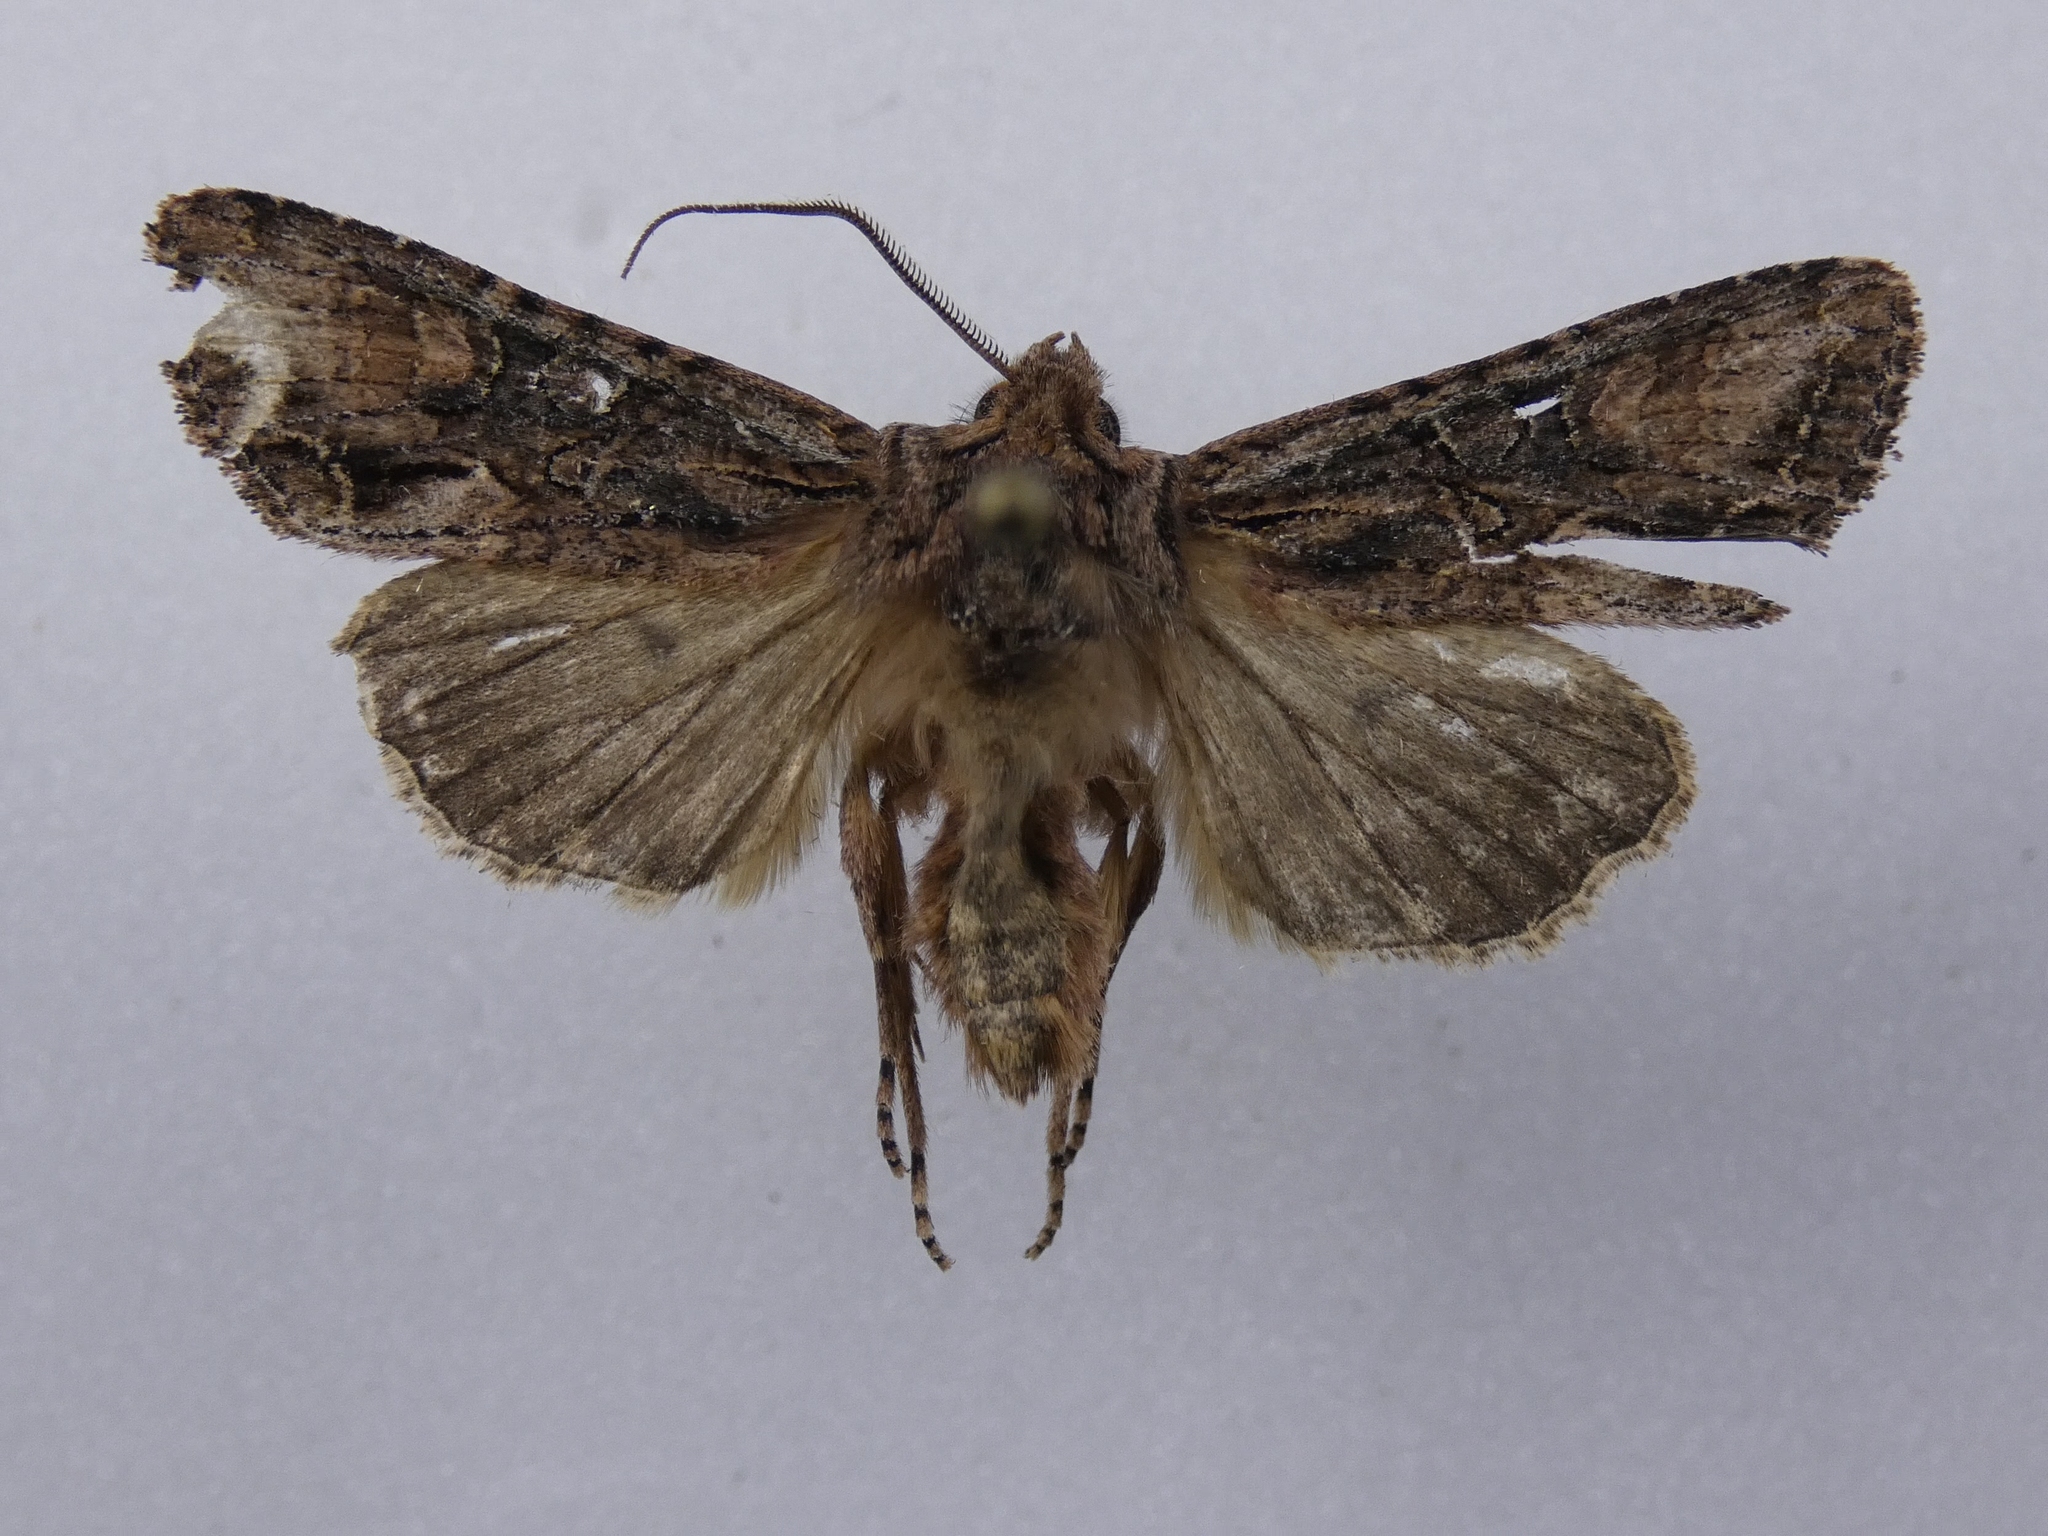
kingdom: Animalia
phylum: Arthropoda
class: Insecta
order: Lepidoptera
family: Noctuidae
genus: Ichneutica
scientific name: Ichneutica mutans
